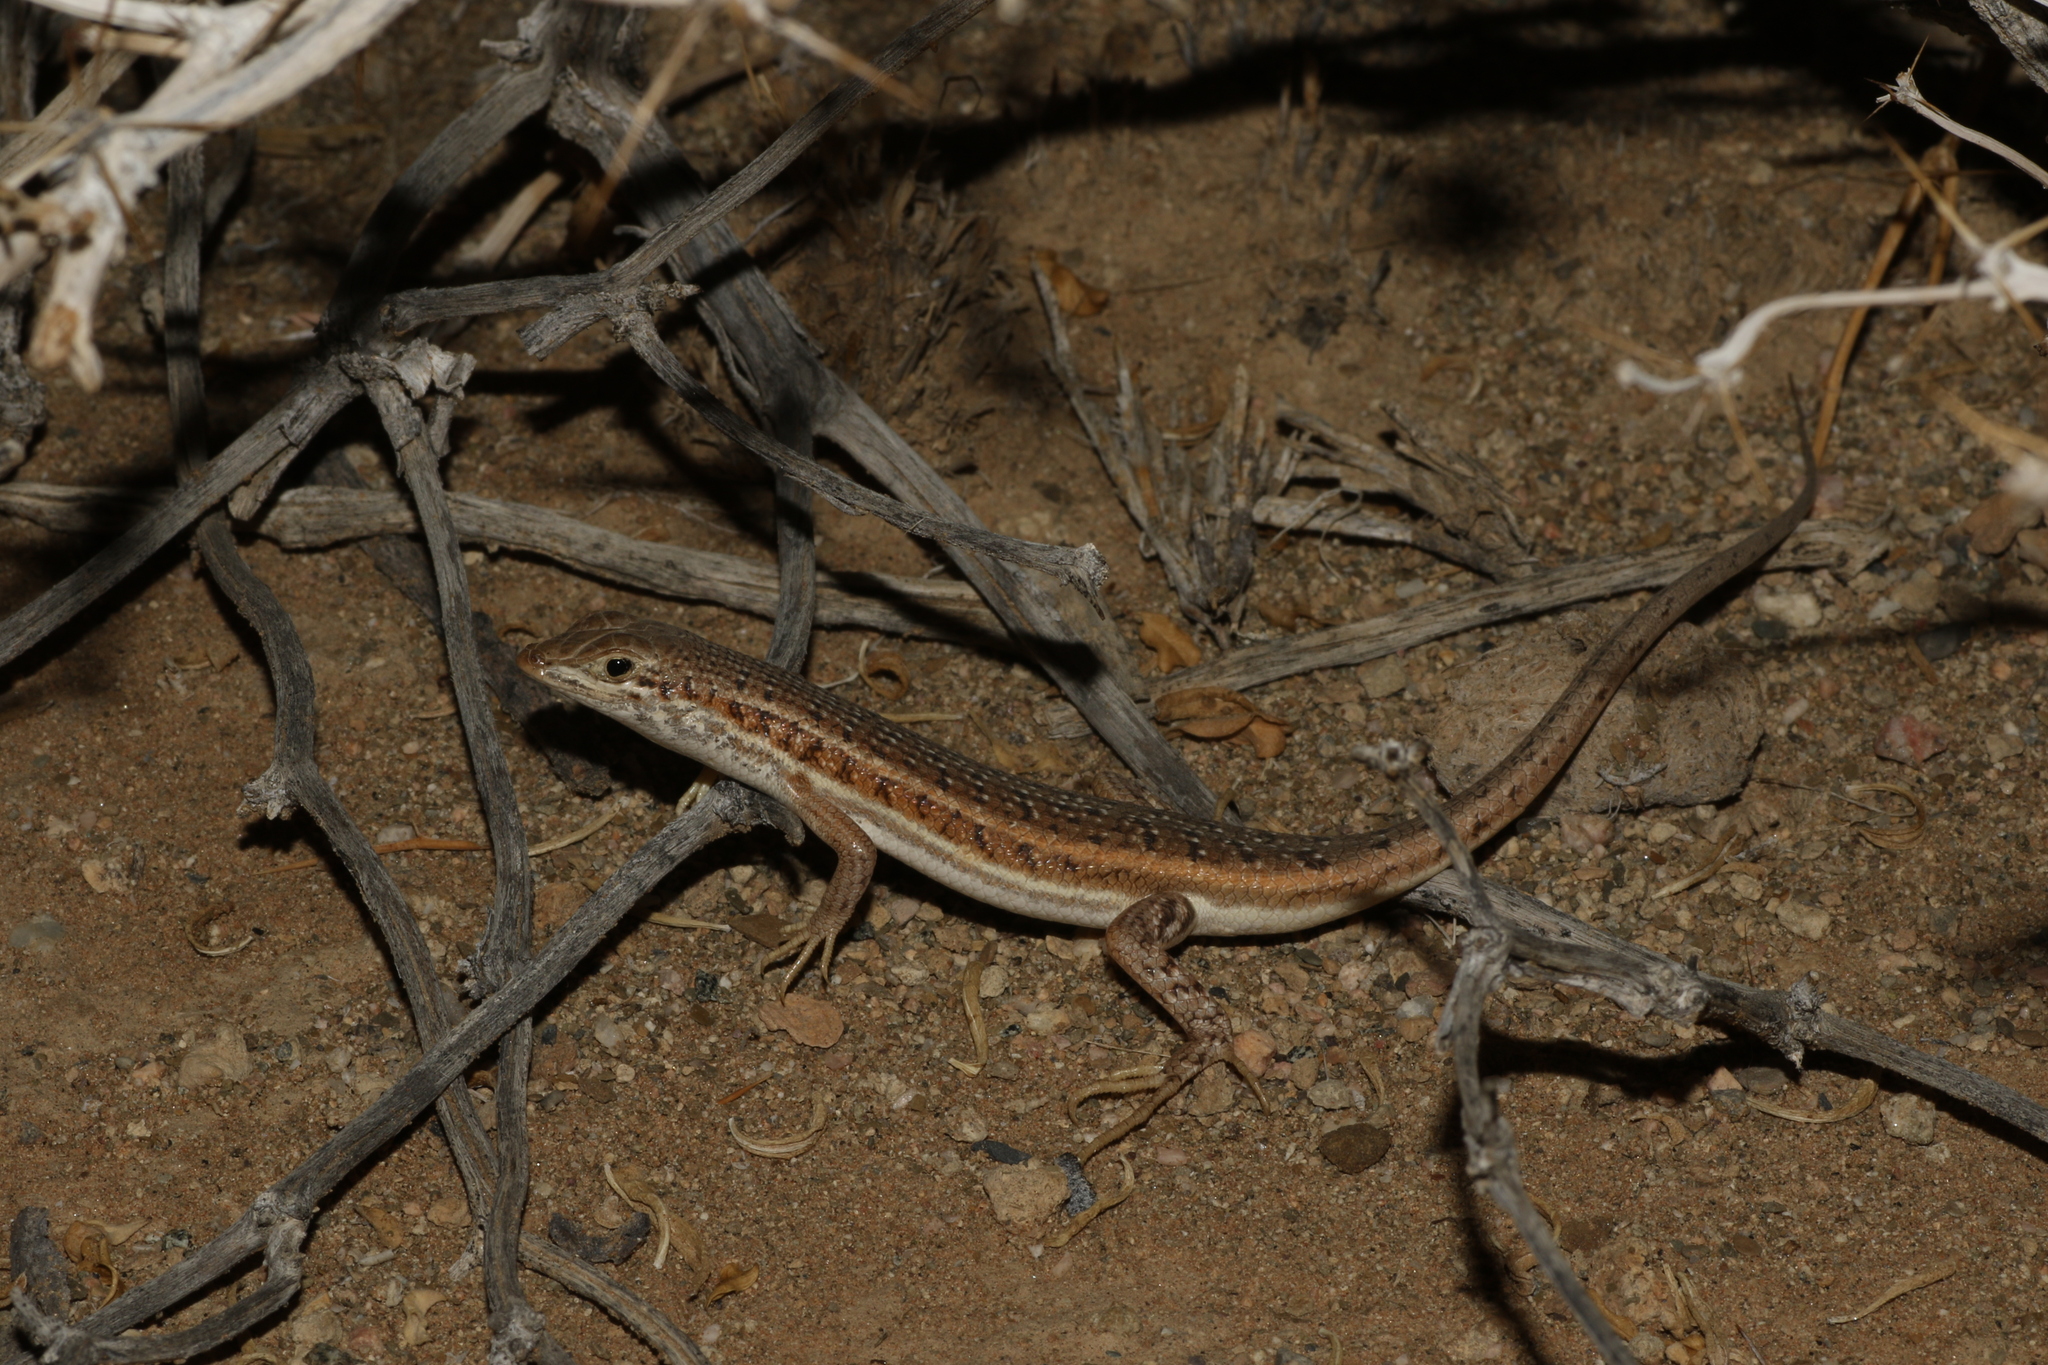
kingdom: Animalia
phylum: Chordata
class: Squamata
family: Scincidae
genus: Trachylepis
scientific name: Trachylepis acutilabris
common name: Sharp-lipped mabuya
